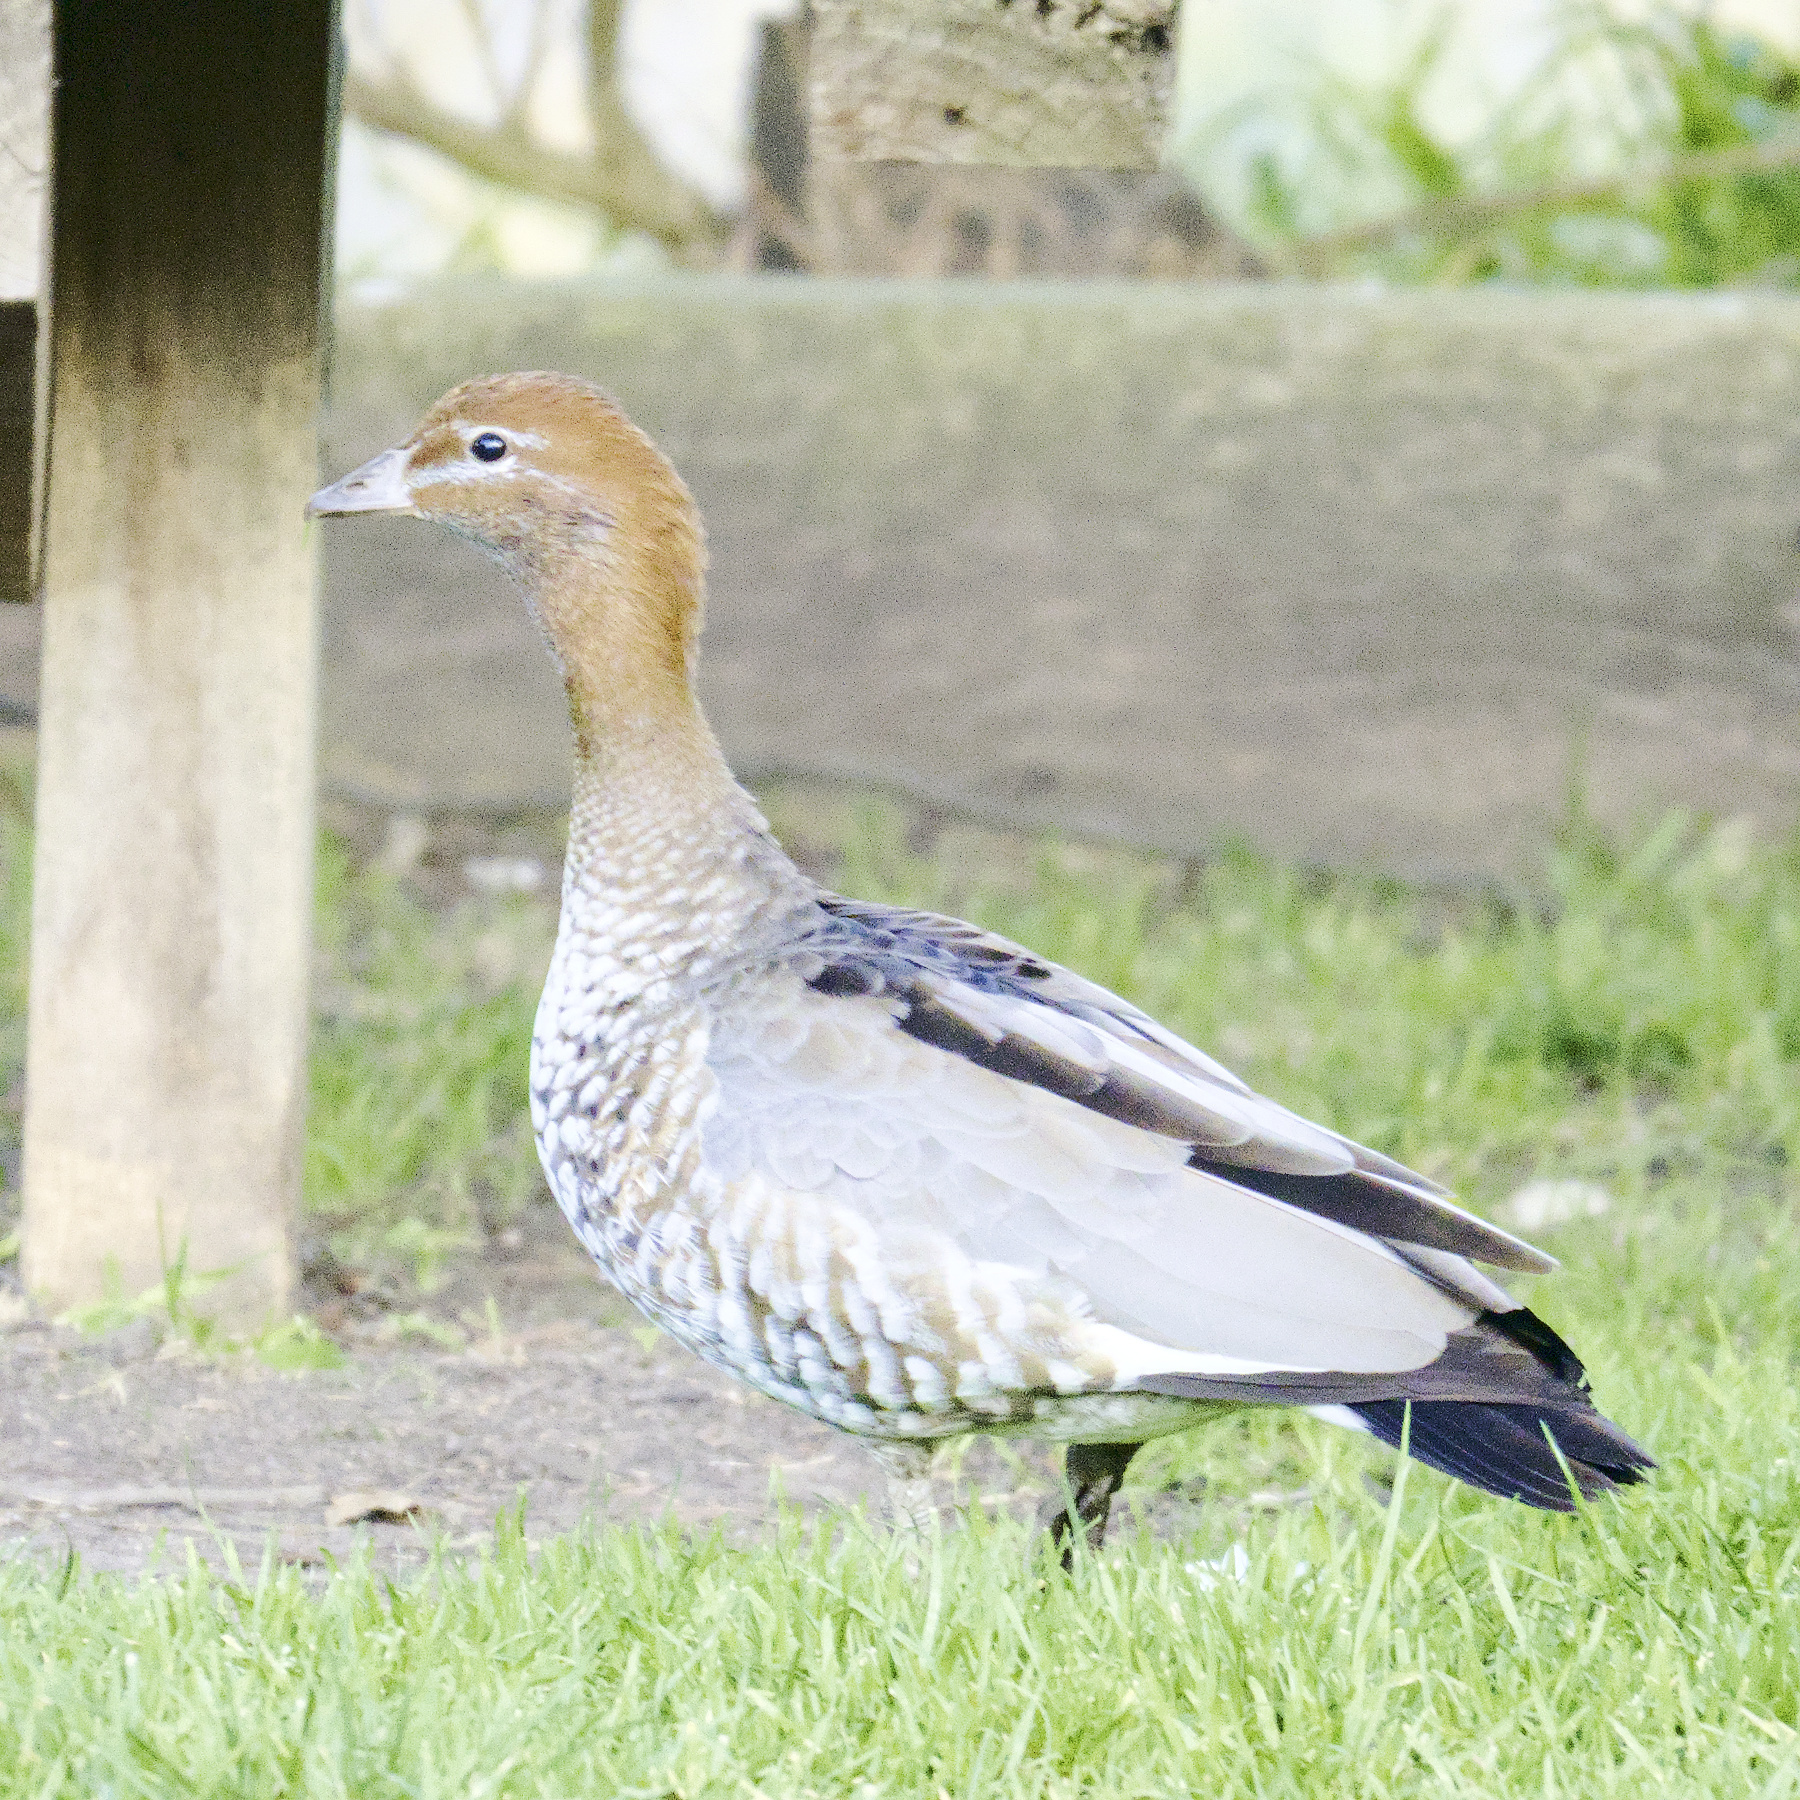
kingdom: Animalia
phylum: Chordata
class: Aves
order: Anseriformes
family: Anatidae
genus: Chenonetta
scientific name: Chenonetta jubata
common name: Maned duck
